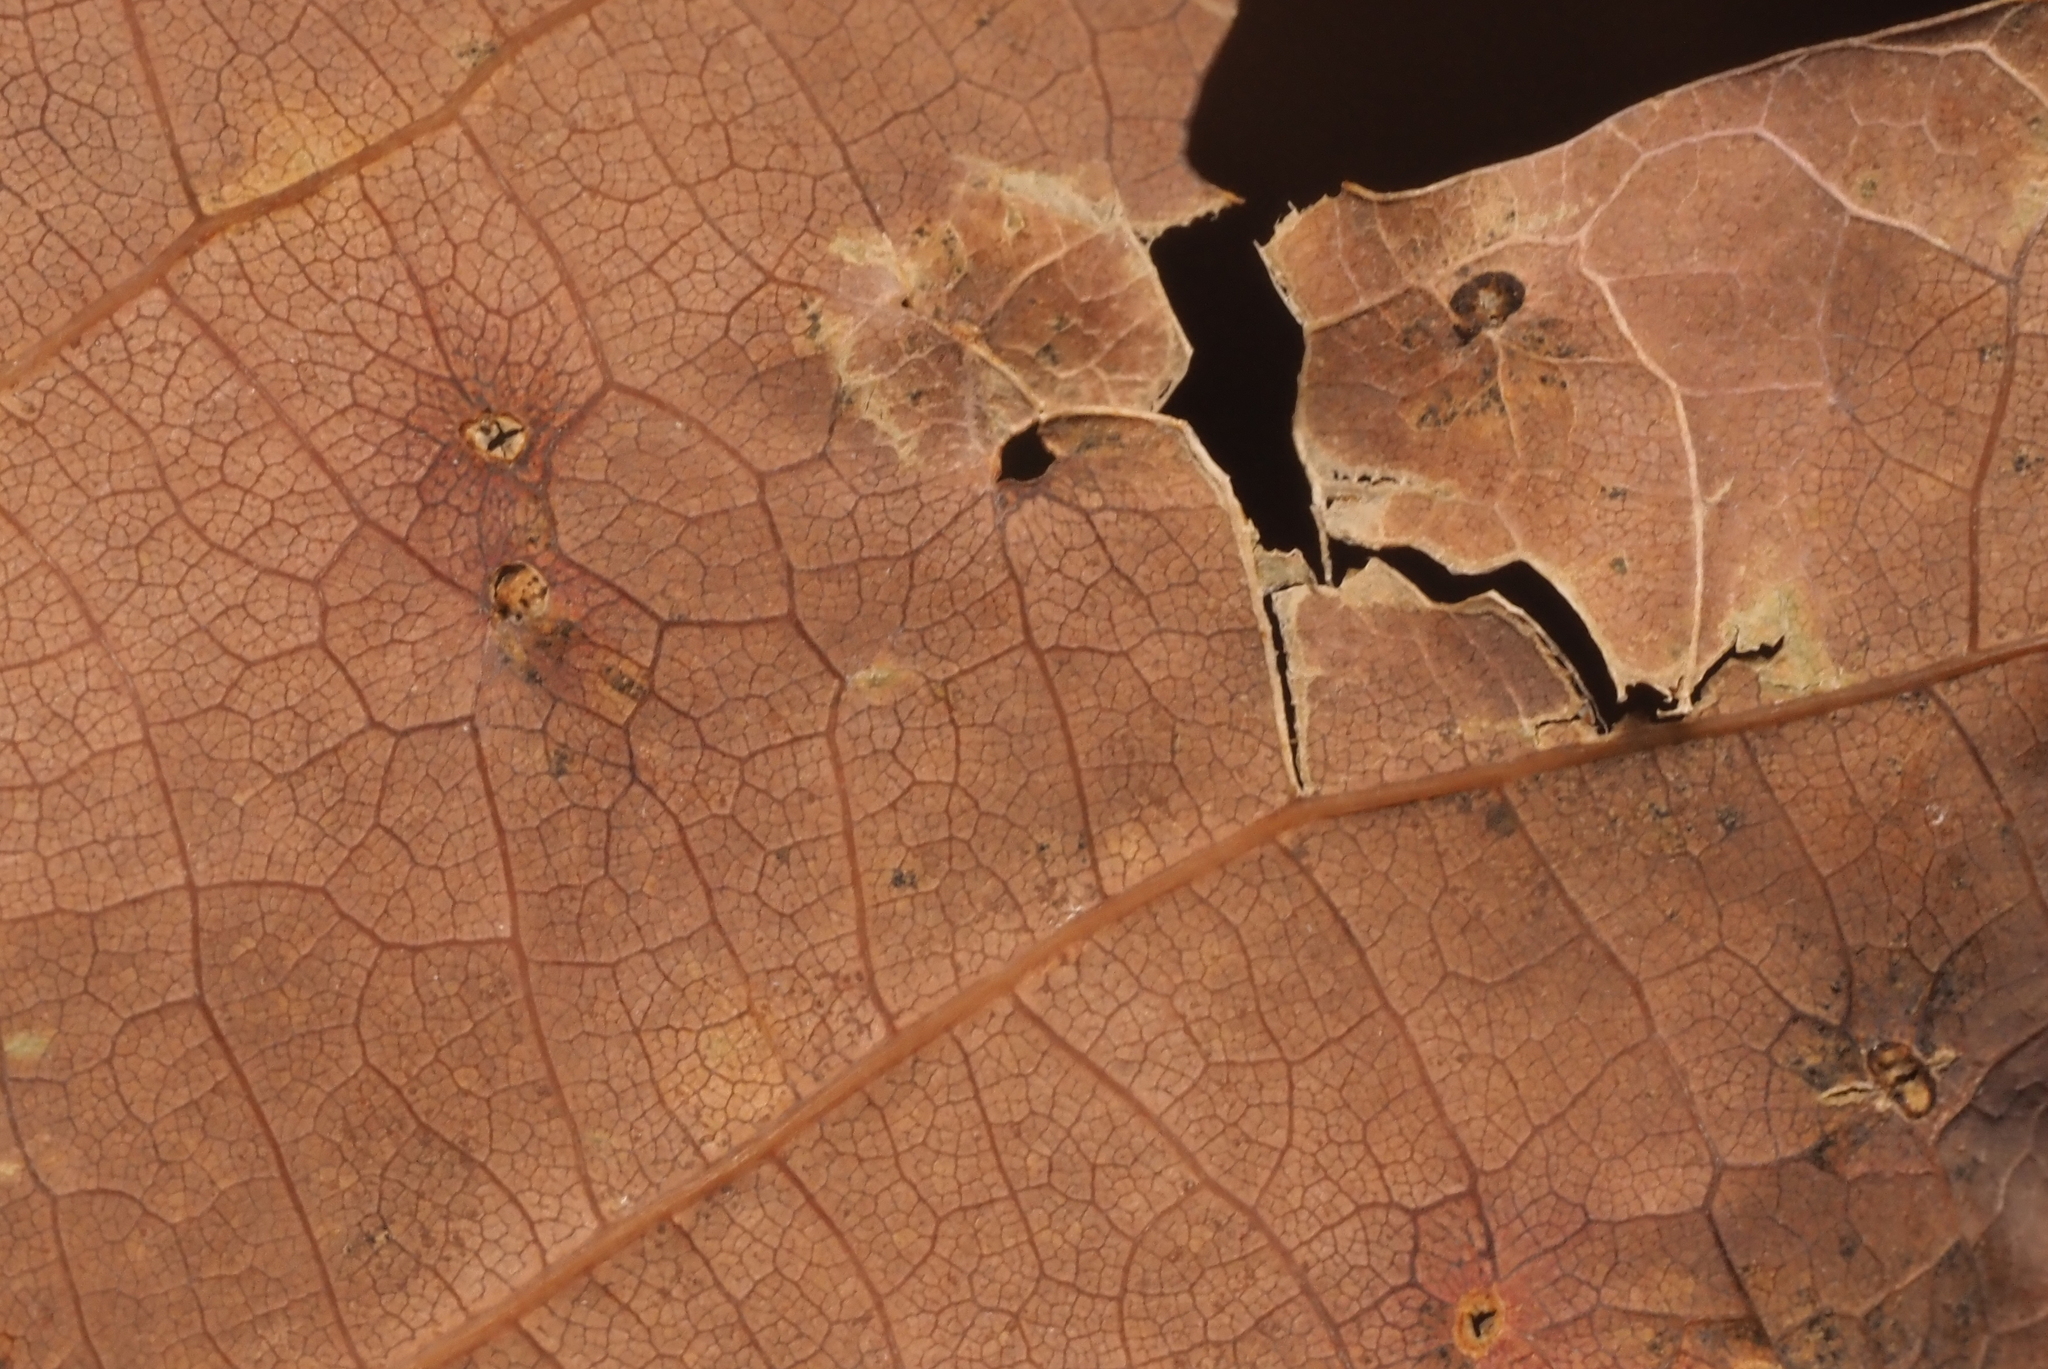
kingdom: Animalia
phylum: Arthropoda
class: Insecta
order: Hymenoptera
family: Cynipidae
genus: Neuroterus
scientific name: Neuroterus quercusverrucarum
